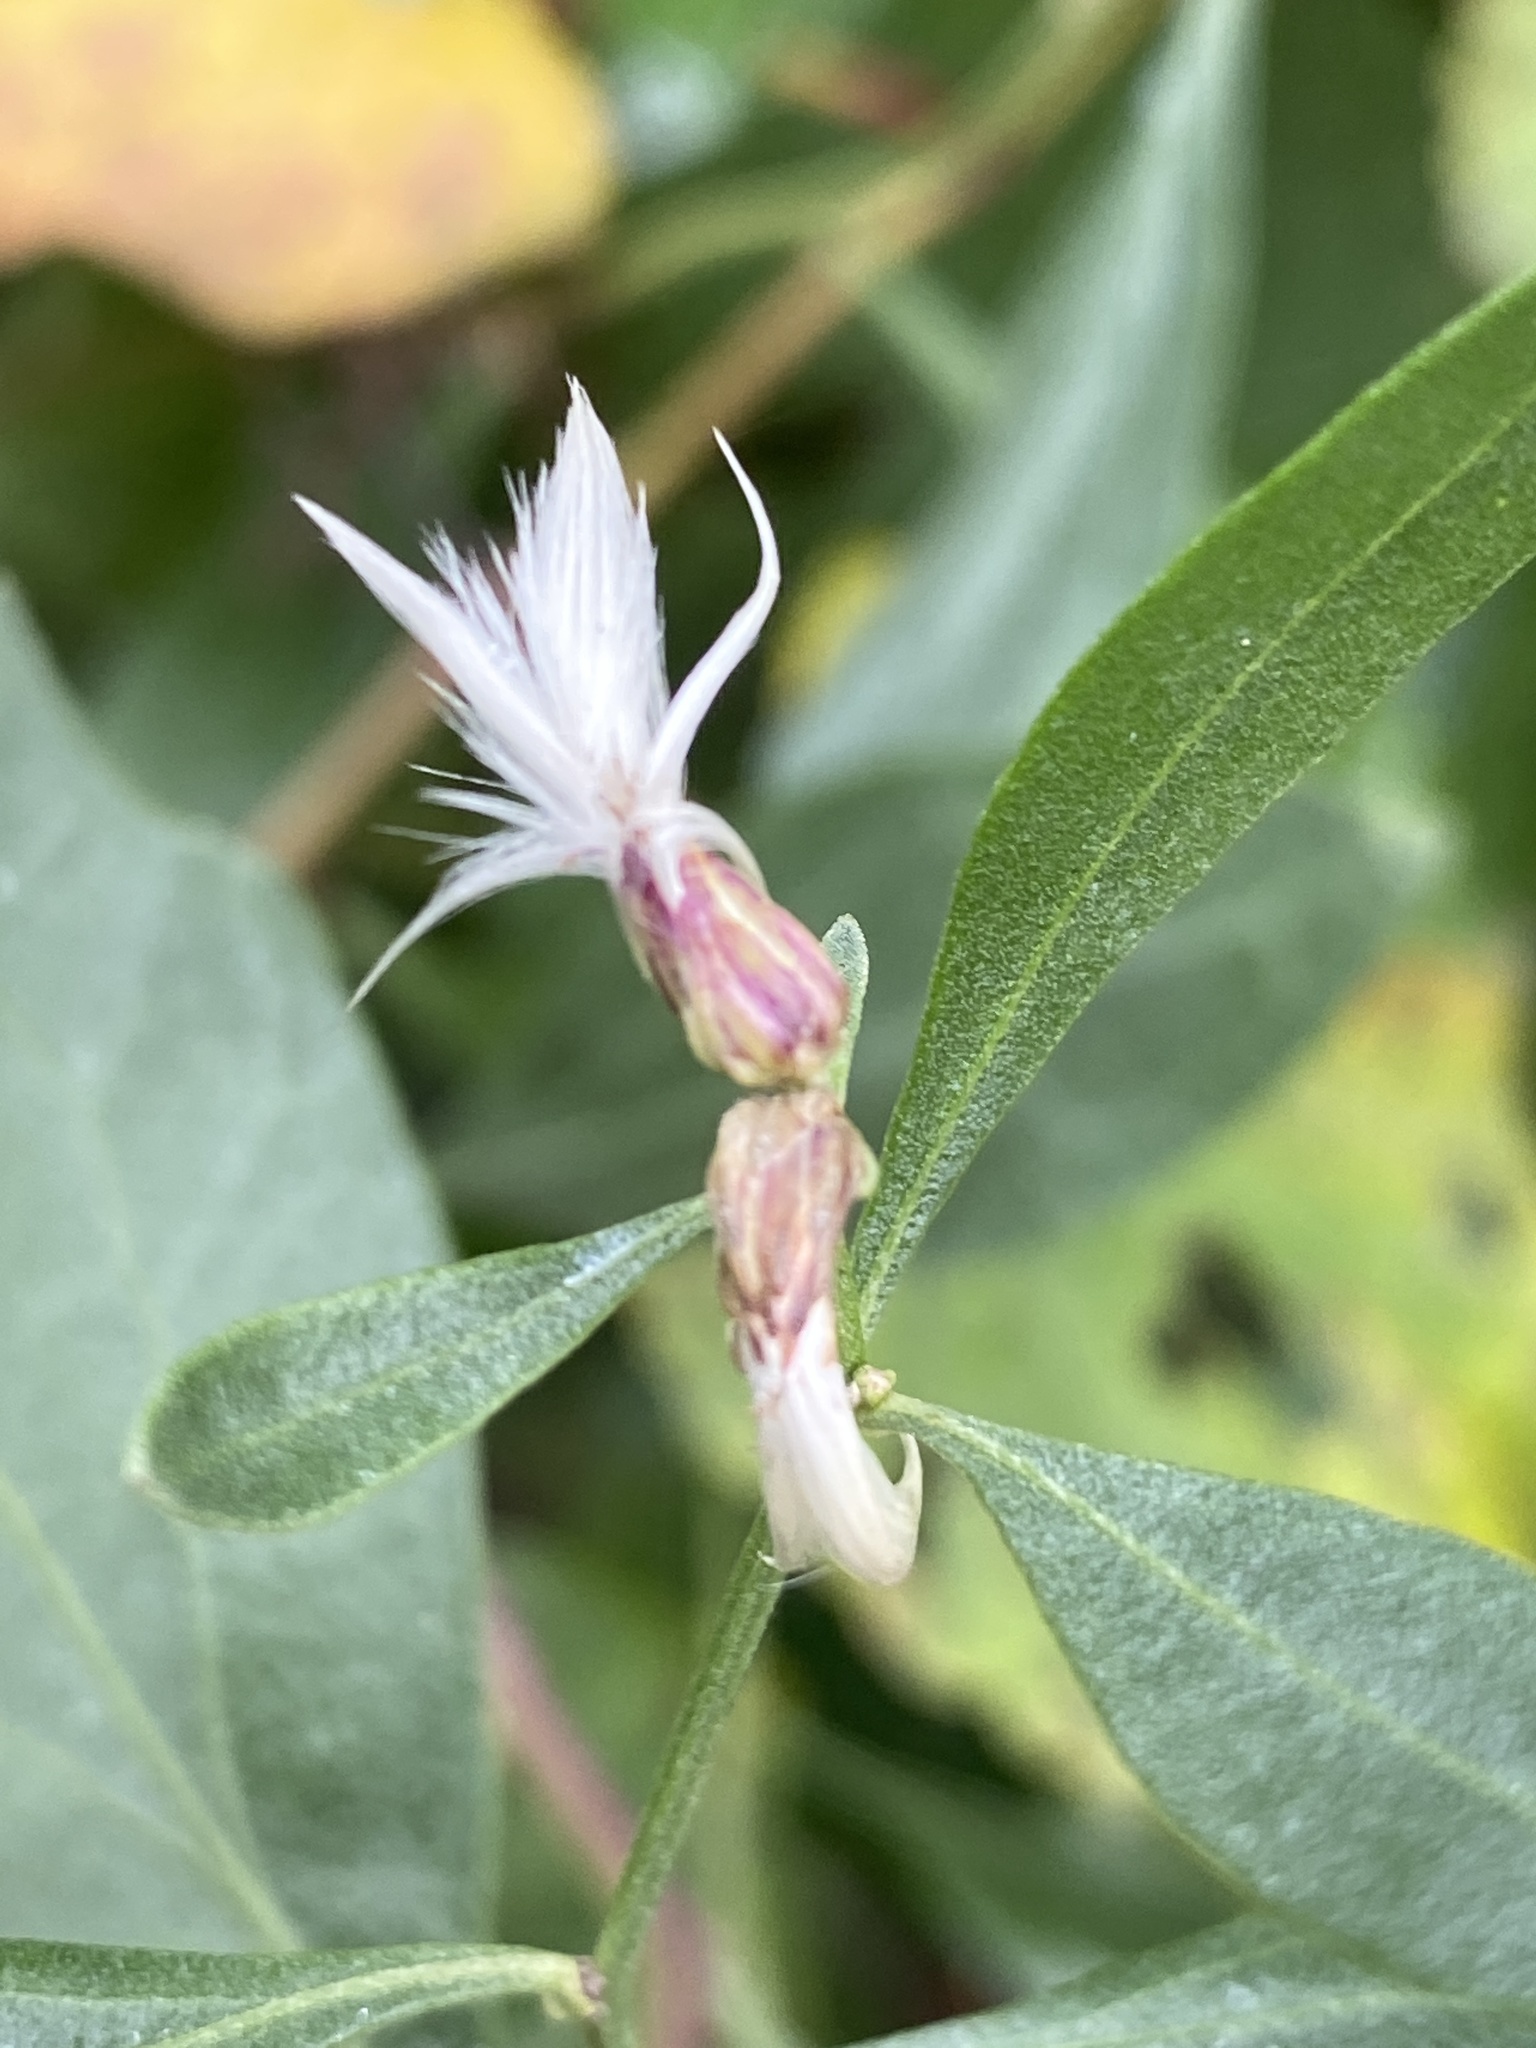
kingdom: Plantae
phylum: Tracheophyta
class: Magnoliopsida
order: Asterales
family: Asteraceae
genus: Baccharis
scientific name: Baccharis halimifolia
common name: Eastern baccharis
